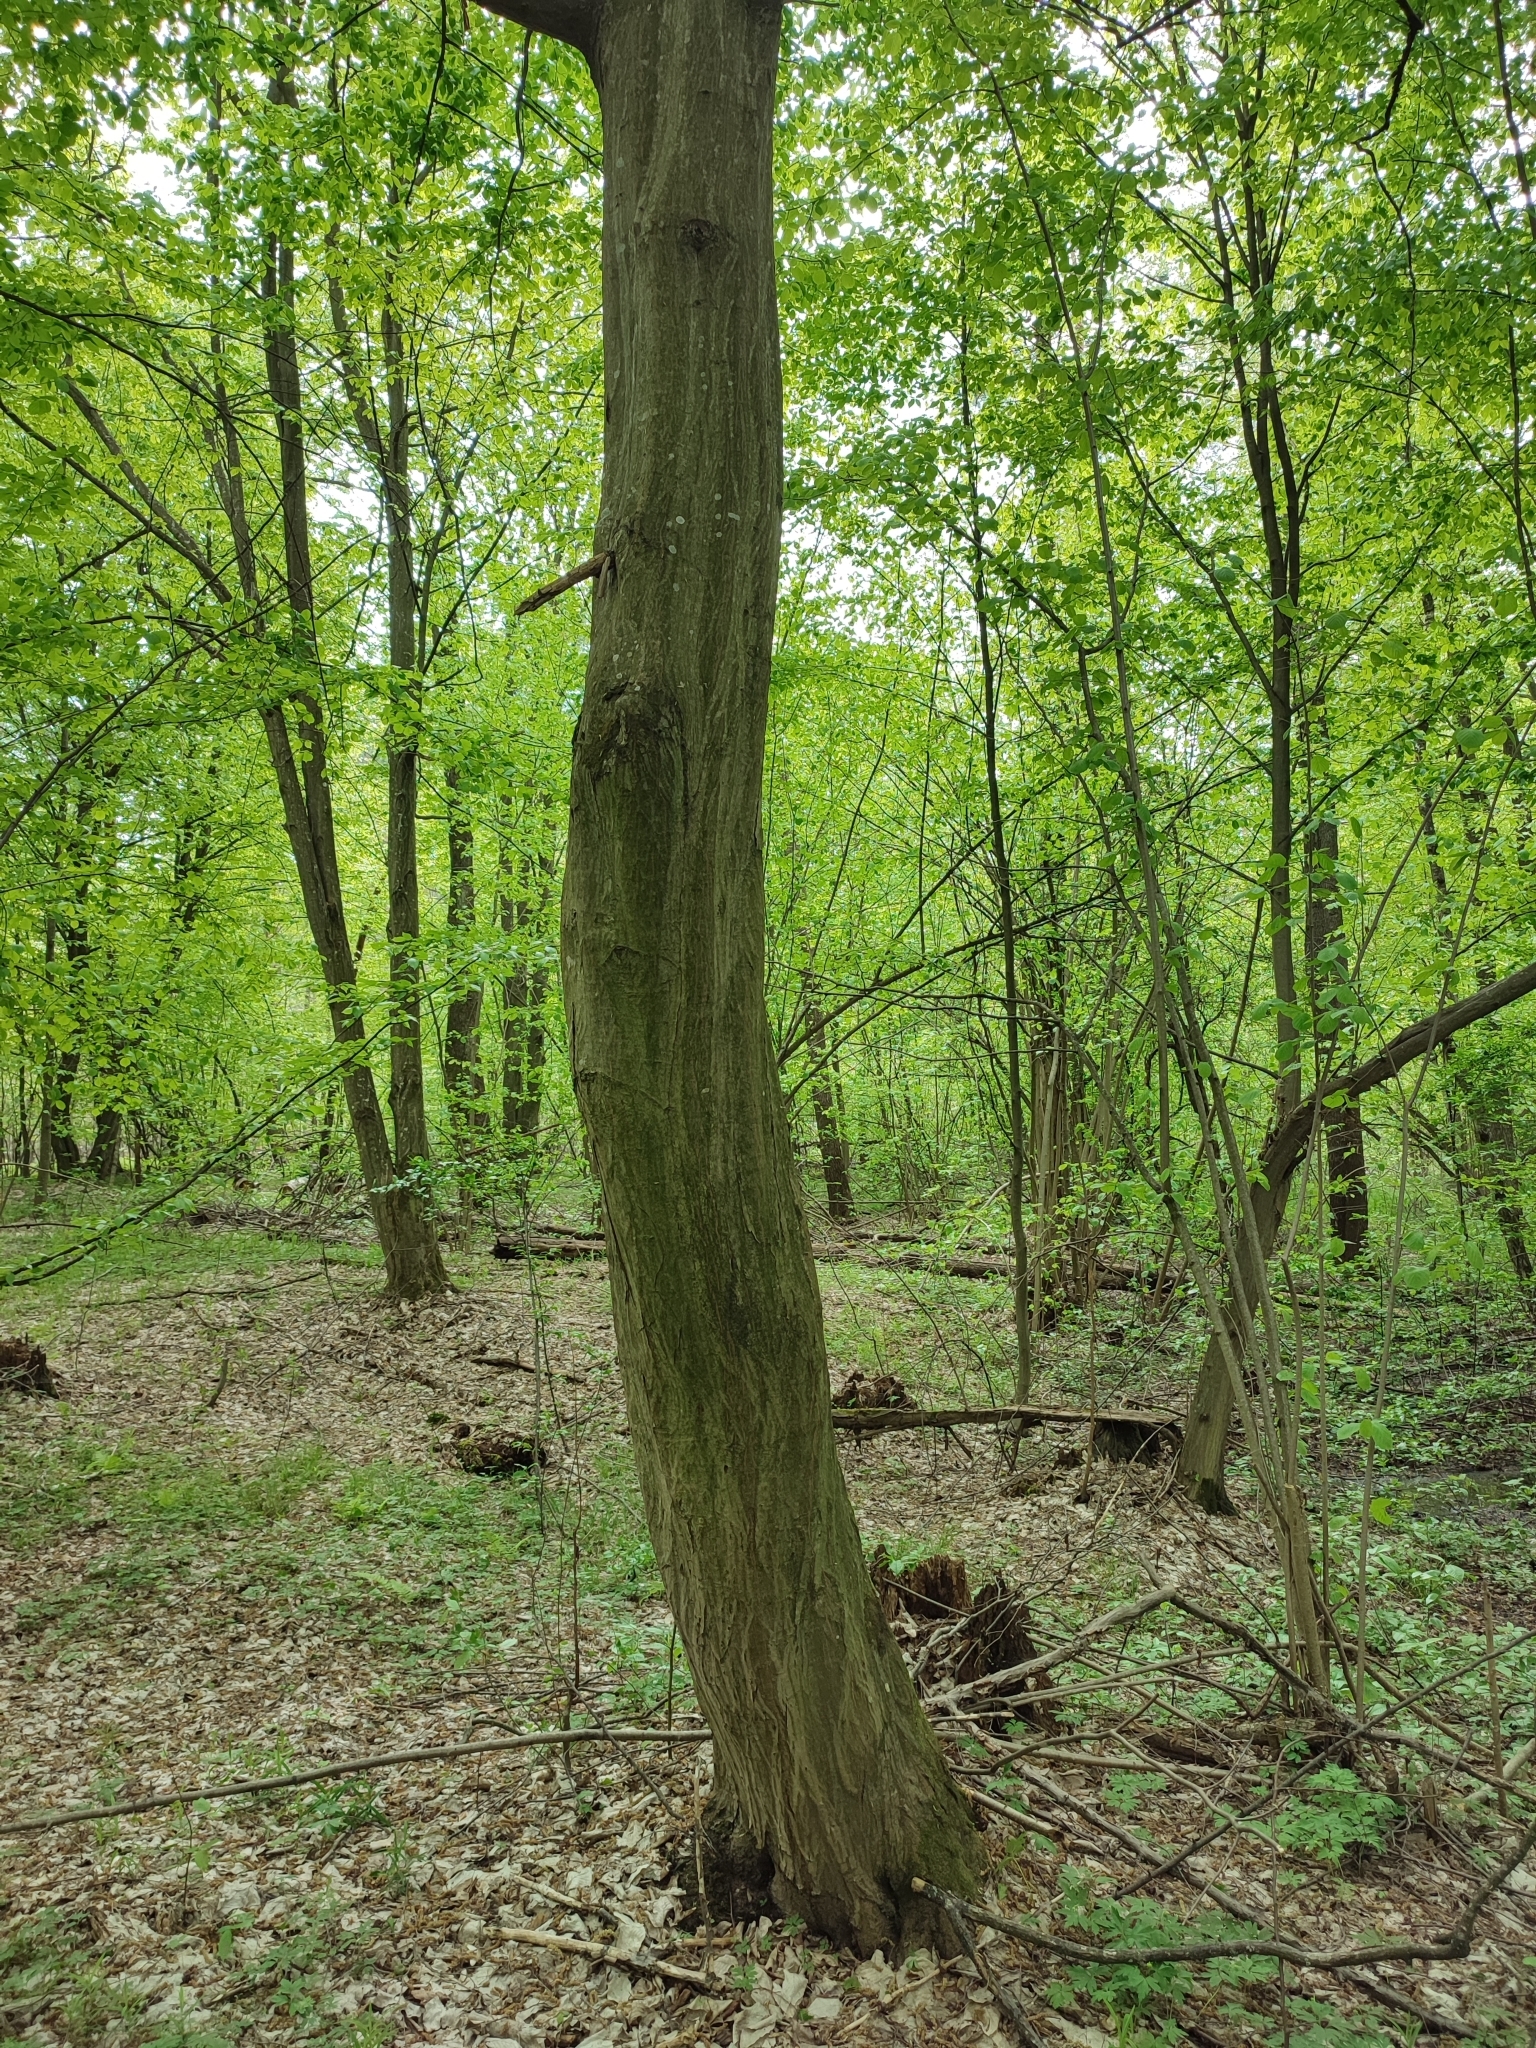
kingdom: Plantae
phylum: Tracheophyta
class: Magnoliopsida
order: Fagales
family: Betulaceae
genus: Carpinus
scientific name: Carpinus betulus
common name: Hornbeam
